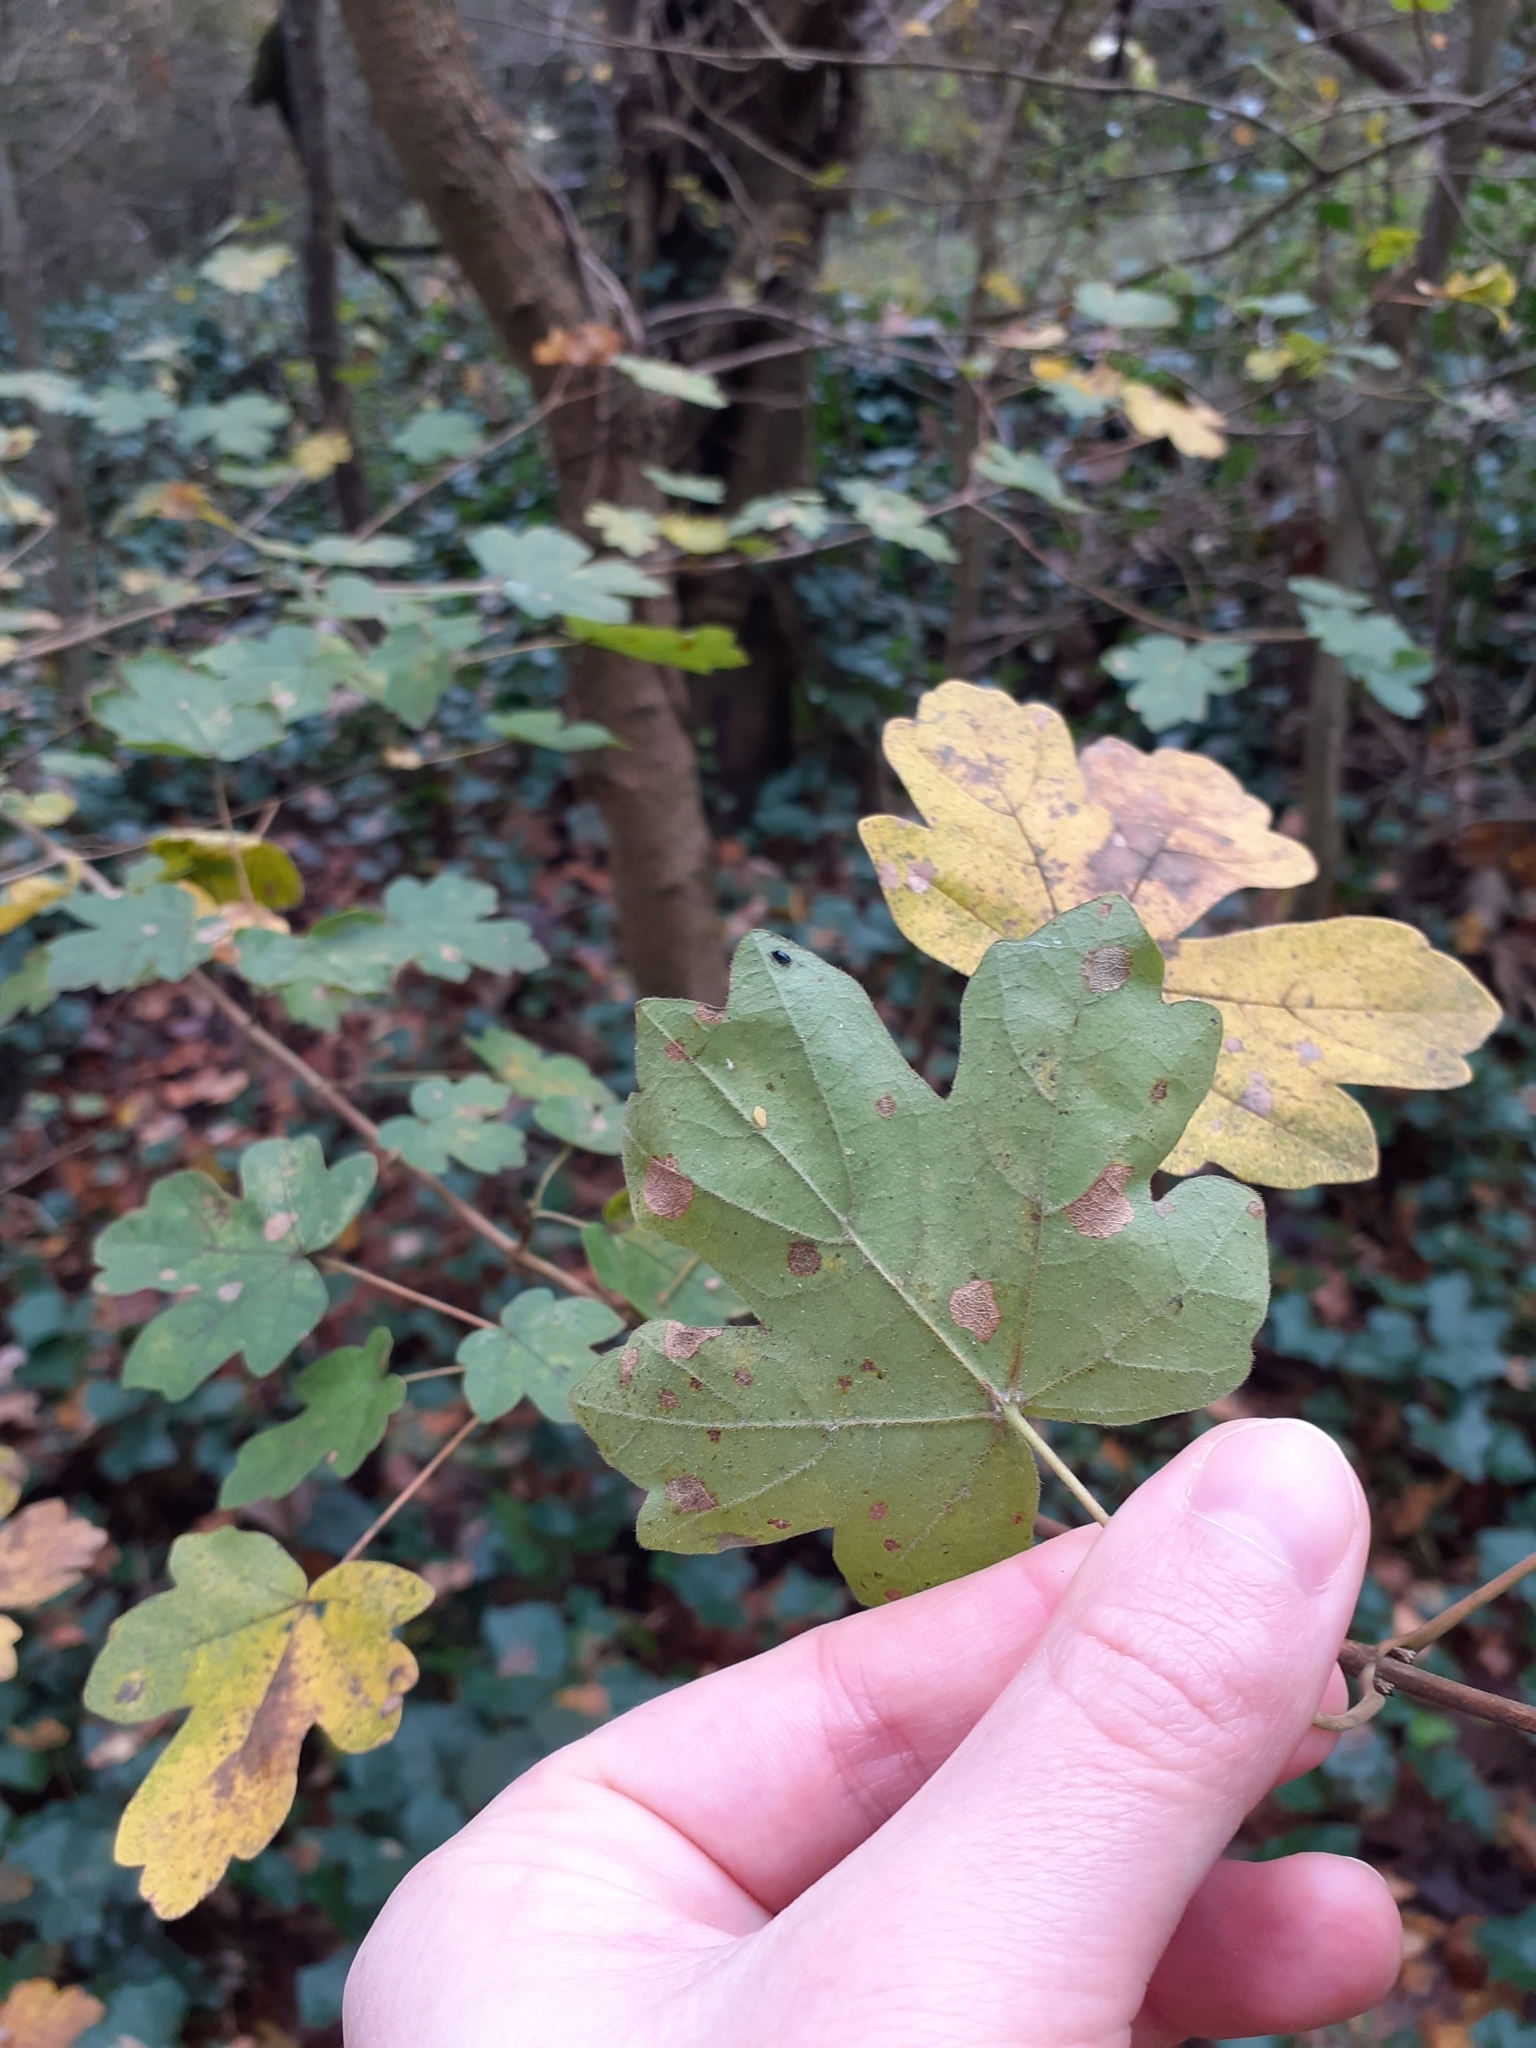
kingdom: Plantae
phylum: Tracheophyta
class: Magnoliopsida
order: Sapindales
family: Sapindaceae
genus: Acer
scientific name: Acer campestre
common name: Field maple
